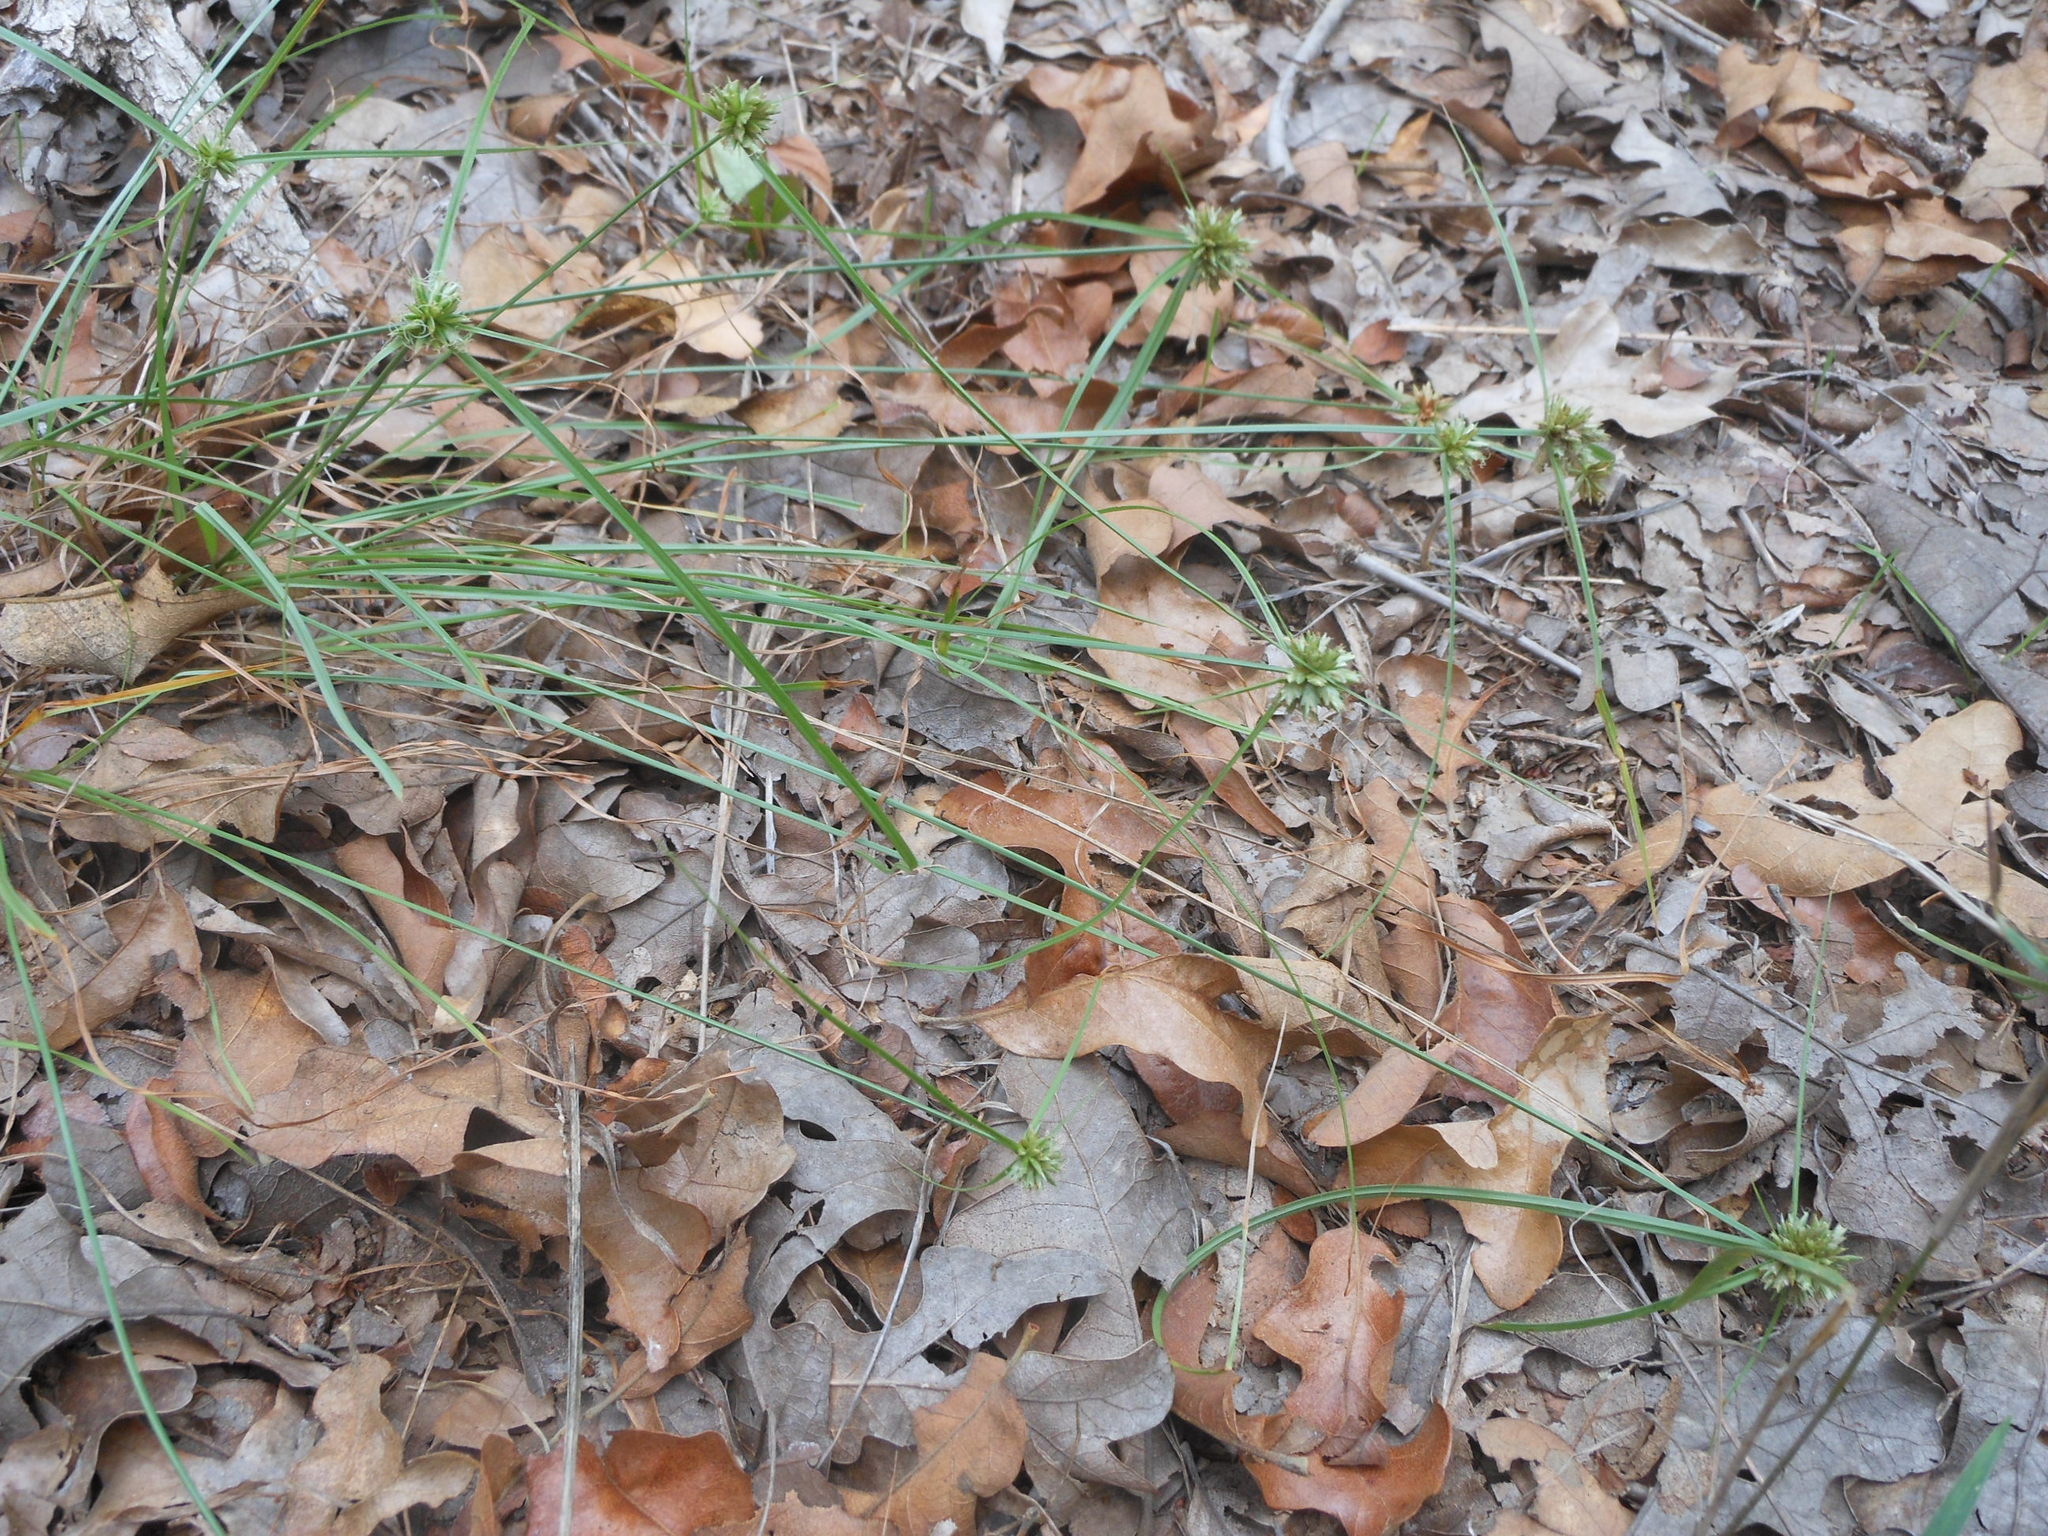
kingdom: Plantae
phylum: Tracheophyta
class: Liliopsida
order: Poales
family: Cyperaceae
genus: Cyperus
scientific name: Cyperus lupulinus
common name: Great plains flatsedge
